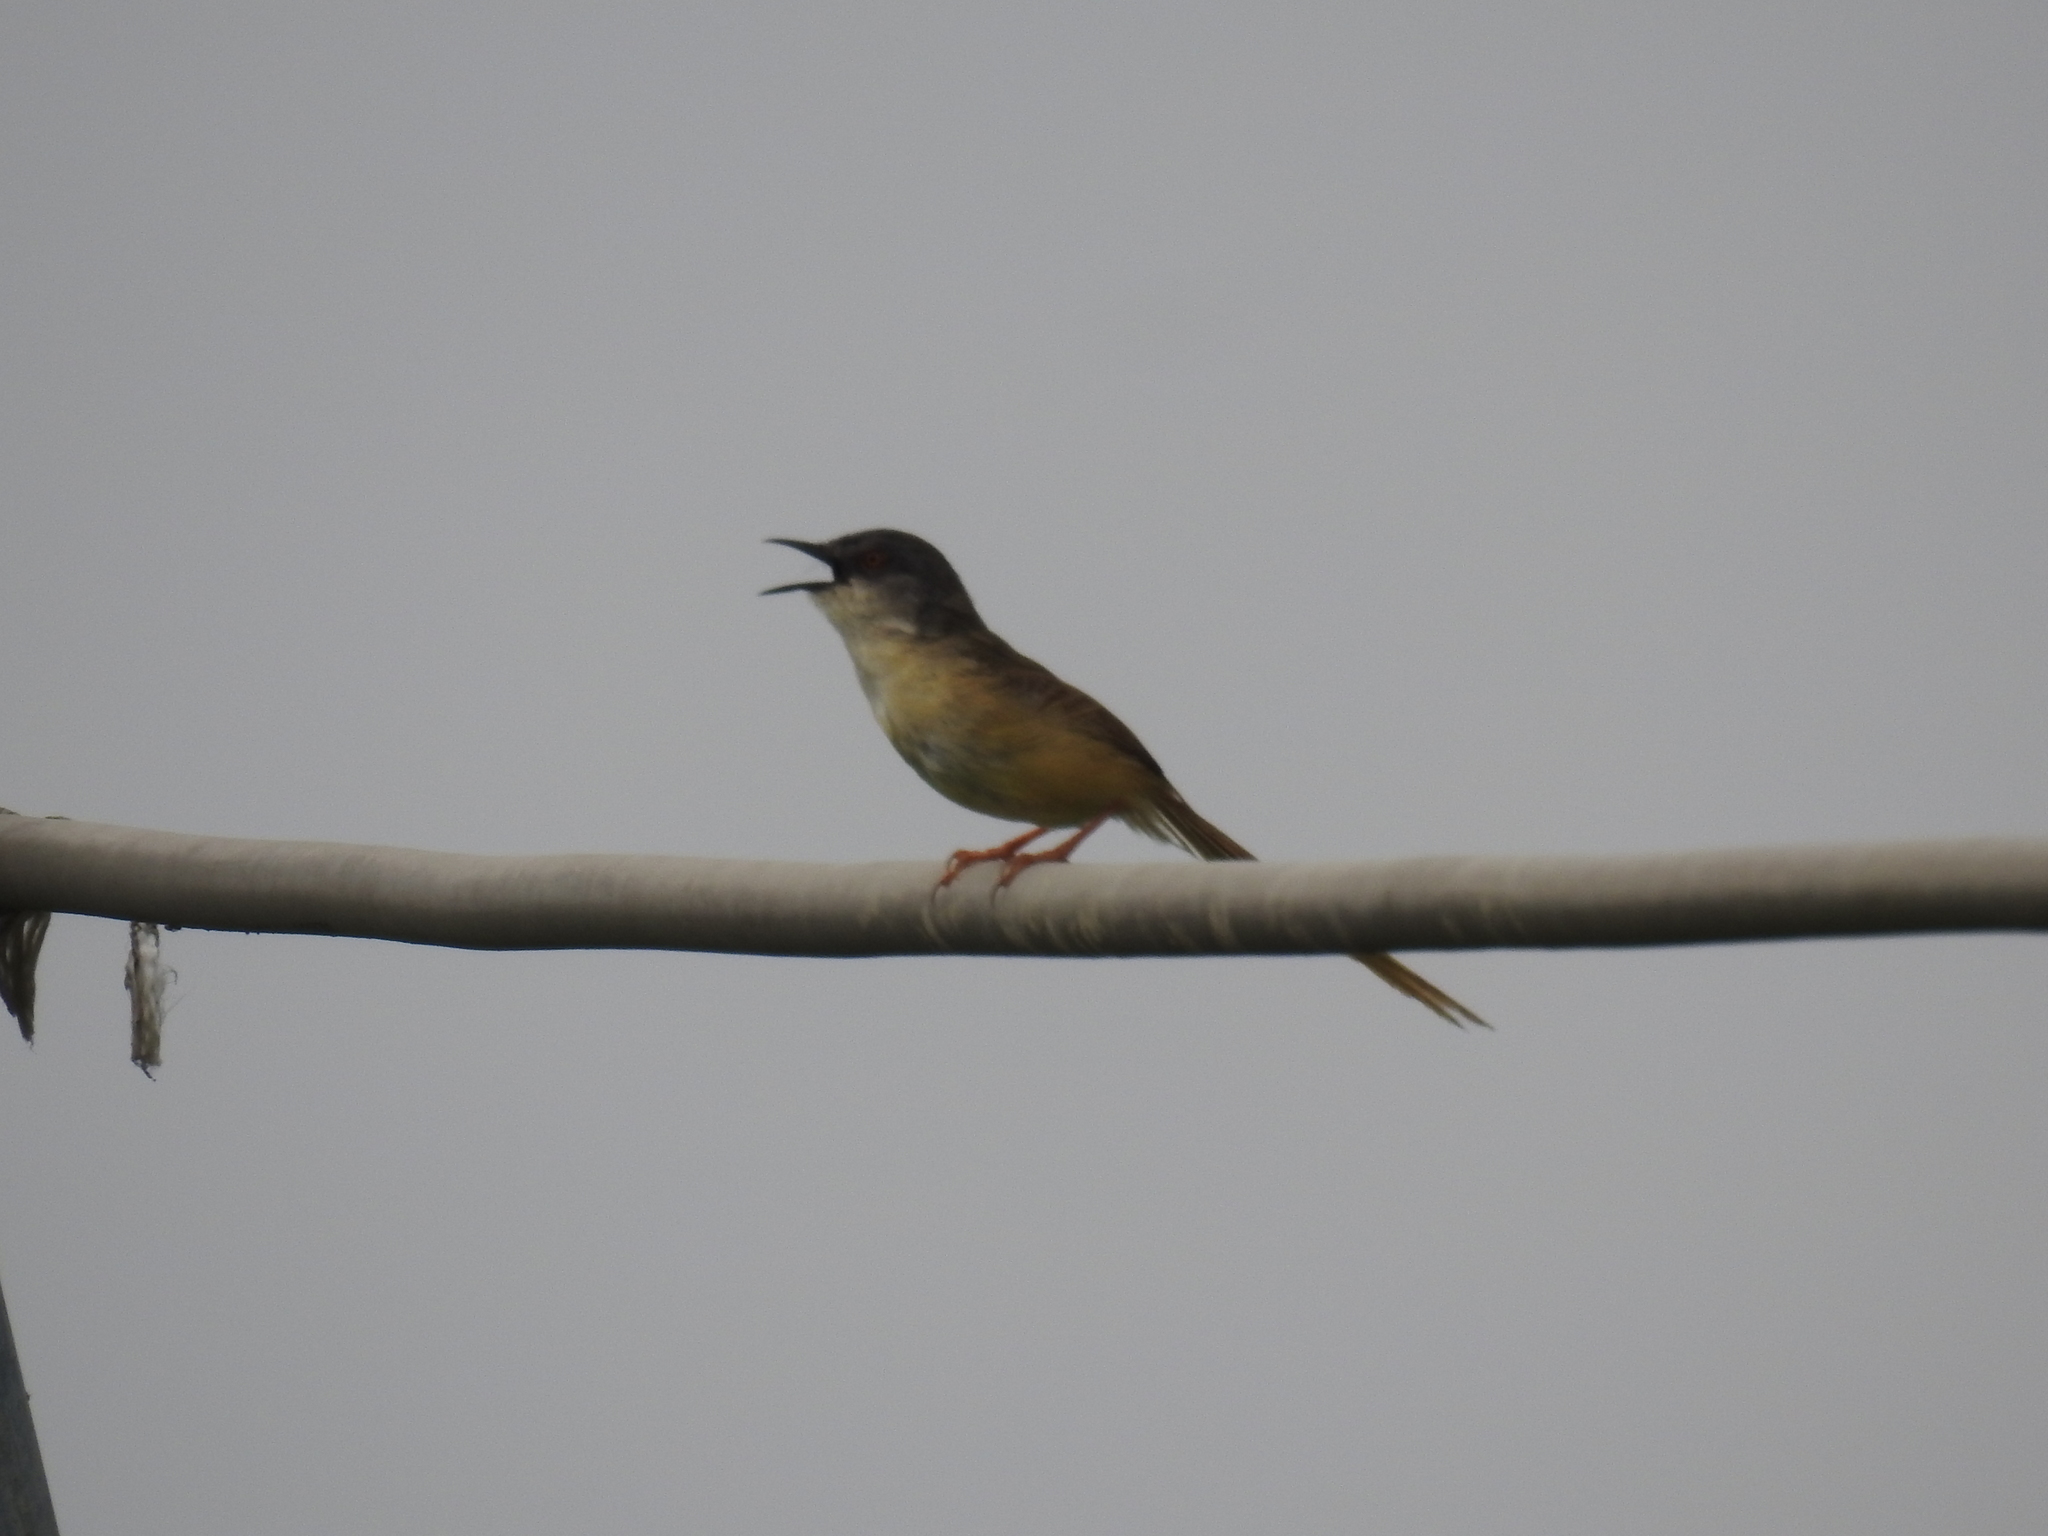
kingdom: Animalia
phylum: Chordata
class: Aves
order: Passeriformes
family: Cisticolidae
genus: Prinia
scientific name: Prinia flaviventris
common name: Yellow-bellied prinia
